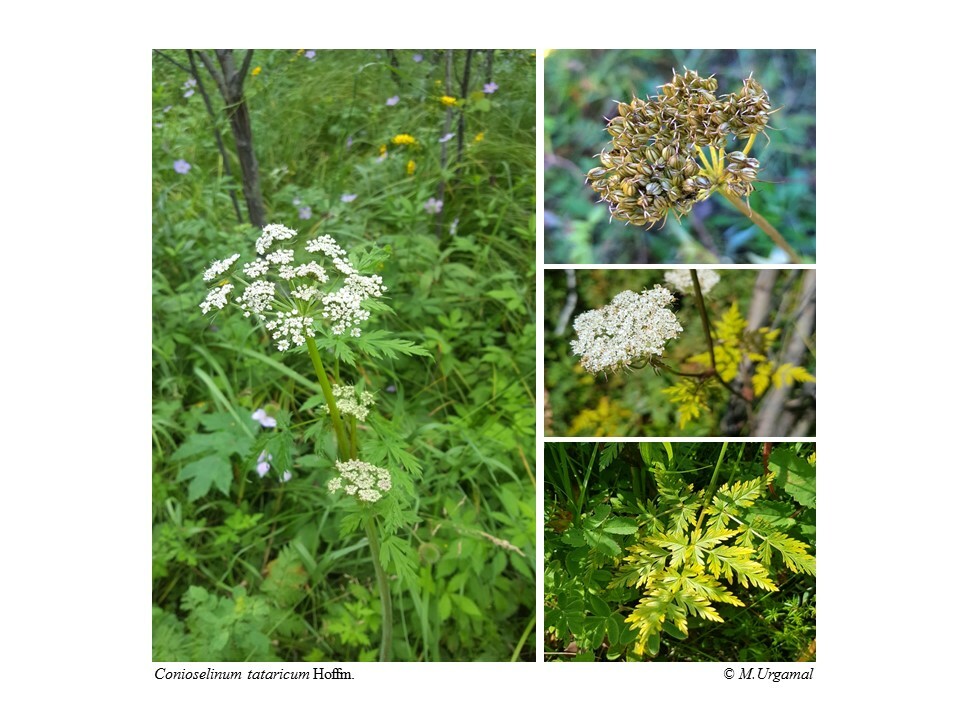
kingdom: Plantae
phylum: Tracheophyta
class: Magnoliopsida
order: Apiales
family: Apiaceae
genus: Conioselinum
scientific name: Conioselinum tataricum
